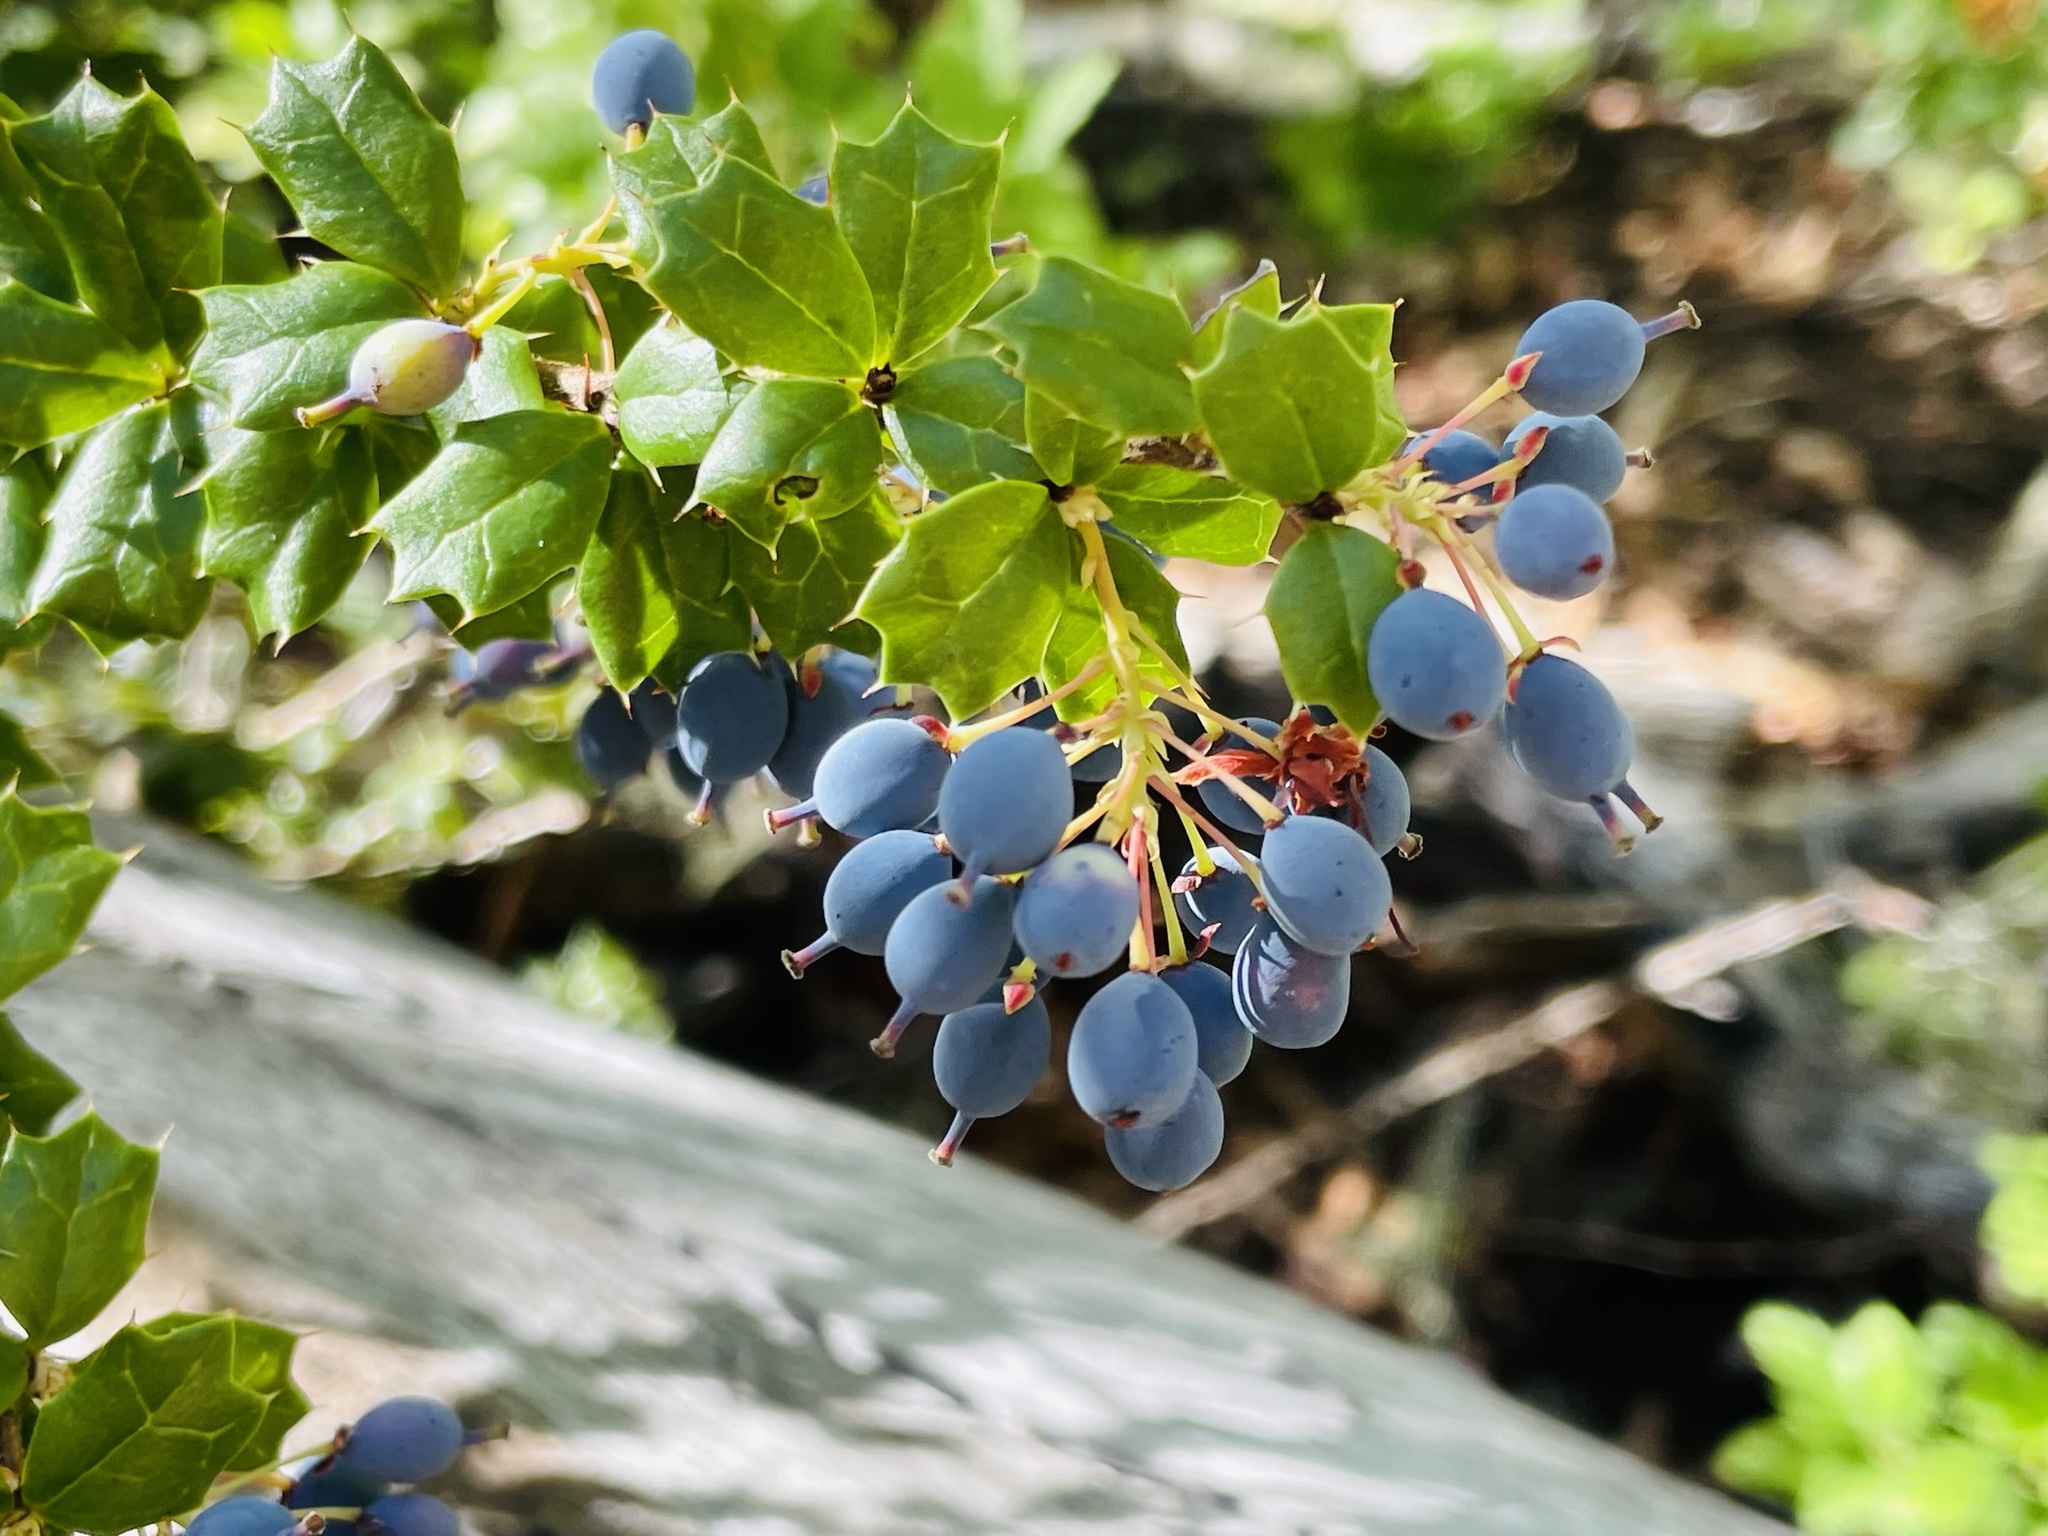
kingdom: Plantae
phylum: Tracheophyta
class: Magnoliopsida
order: Ranunculales
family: Berberidaceae
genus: Berberis
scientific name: Berberis darwinii
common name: Darwin's barberry
